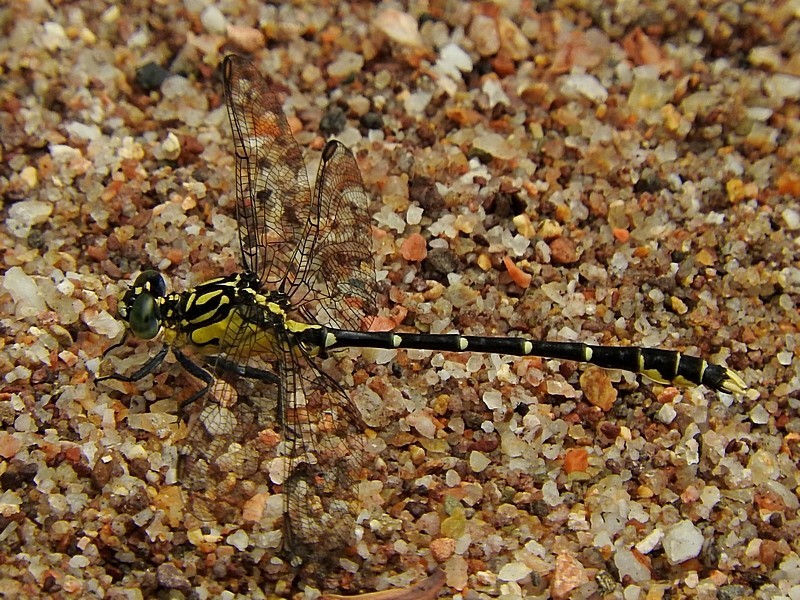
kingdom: Animalia
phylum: Arthropoda
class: Insecta
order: Odonata
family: Gomphidae
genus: Hemigomphus
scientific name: Hemigomphus gouldii
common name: Southern vicetail
